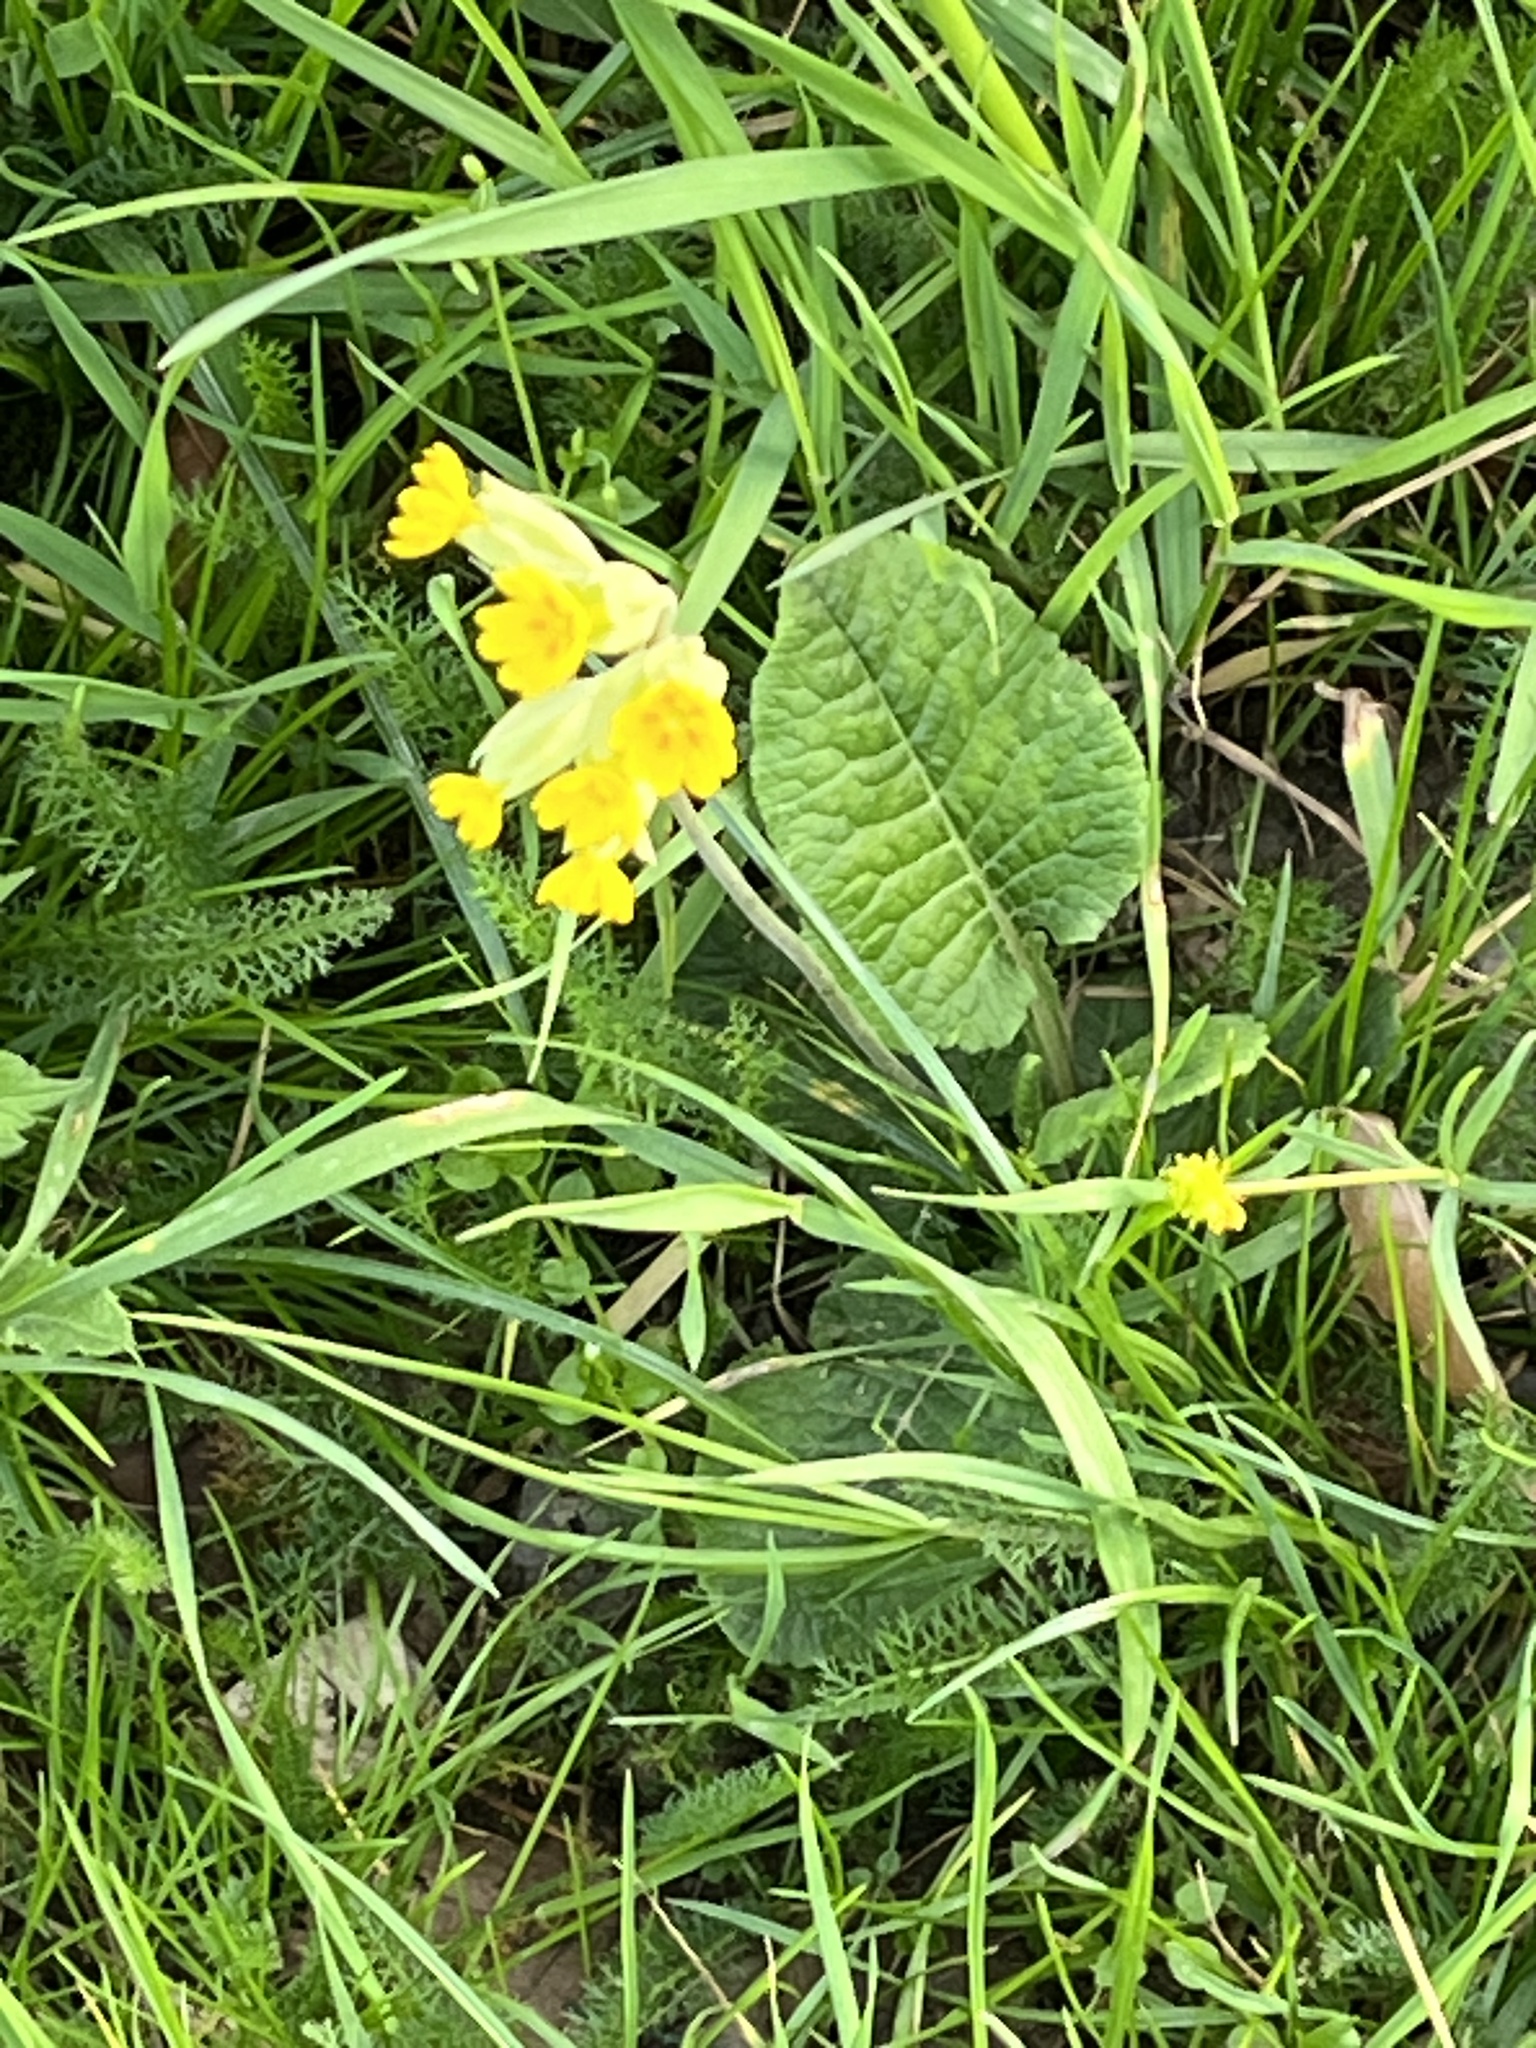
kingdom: Plantae
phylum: Tracheophyta
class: Magnoliopsida
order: Ericales
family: Primulaceae
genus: Primula
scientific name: Primula veris
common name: Cowslip
